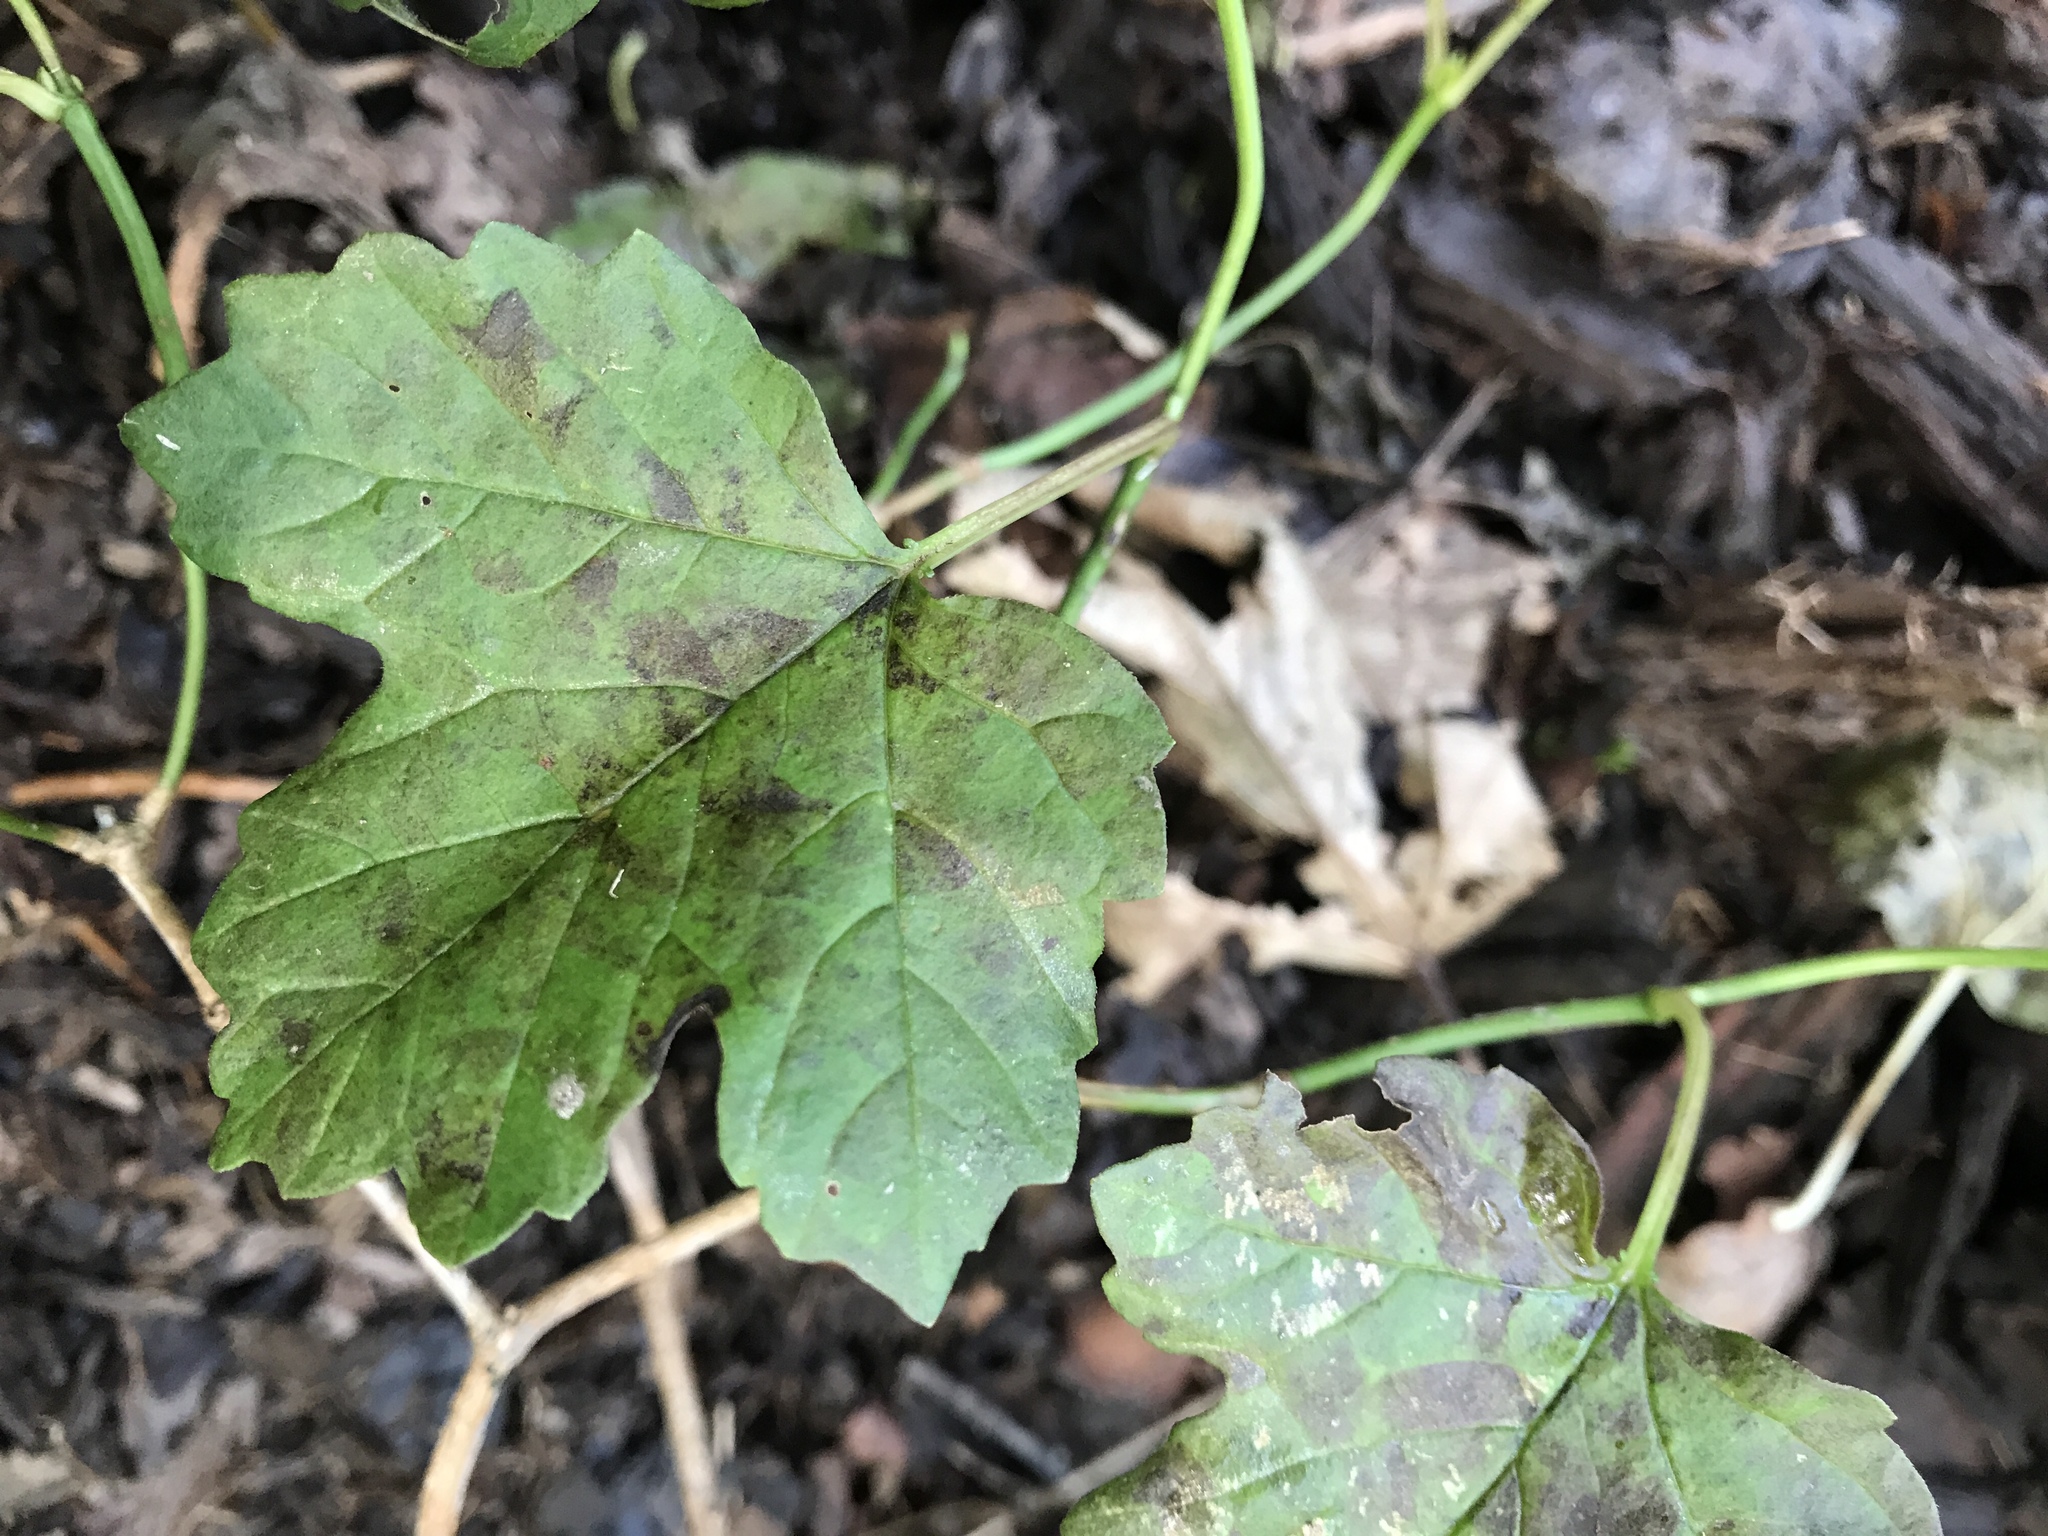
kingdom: Plantae
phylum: Tracheophyta
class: Magnoliopsida
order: Dipsacales
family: Viburnaceae
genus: Viburnum
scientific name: Viburnum trilobum
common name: American cranberrybush
